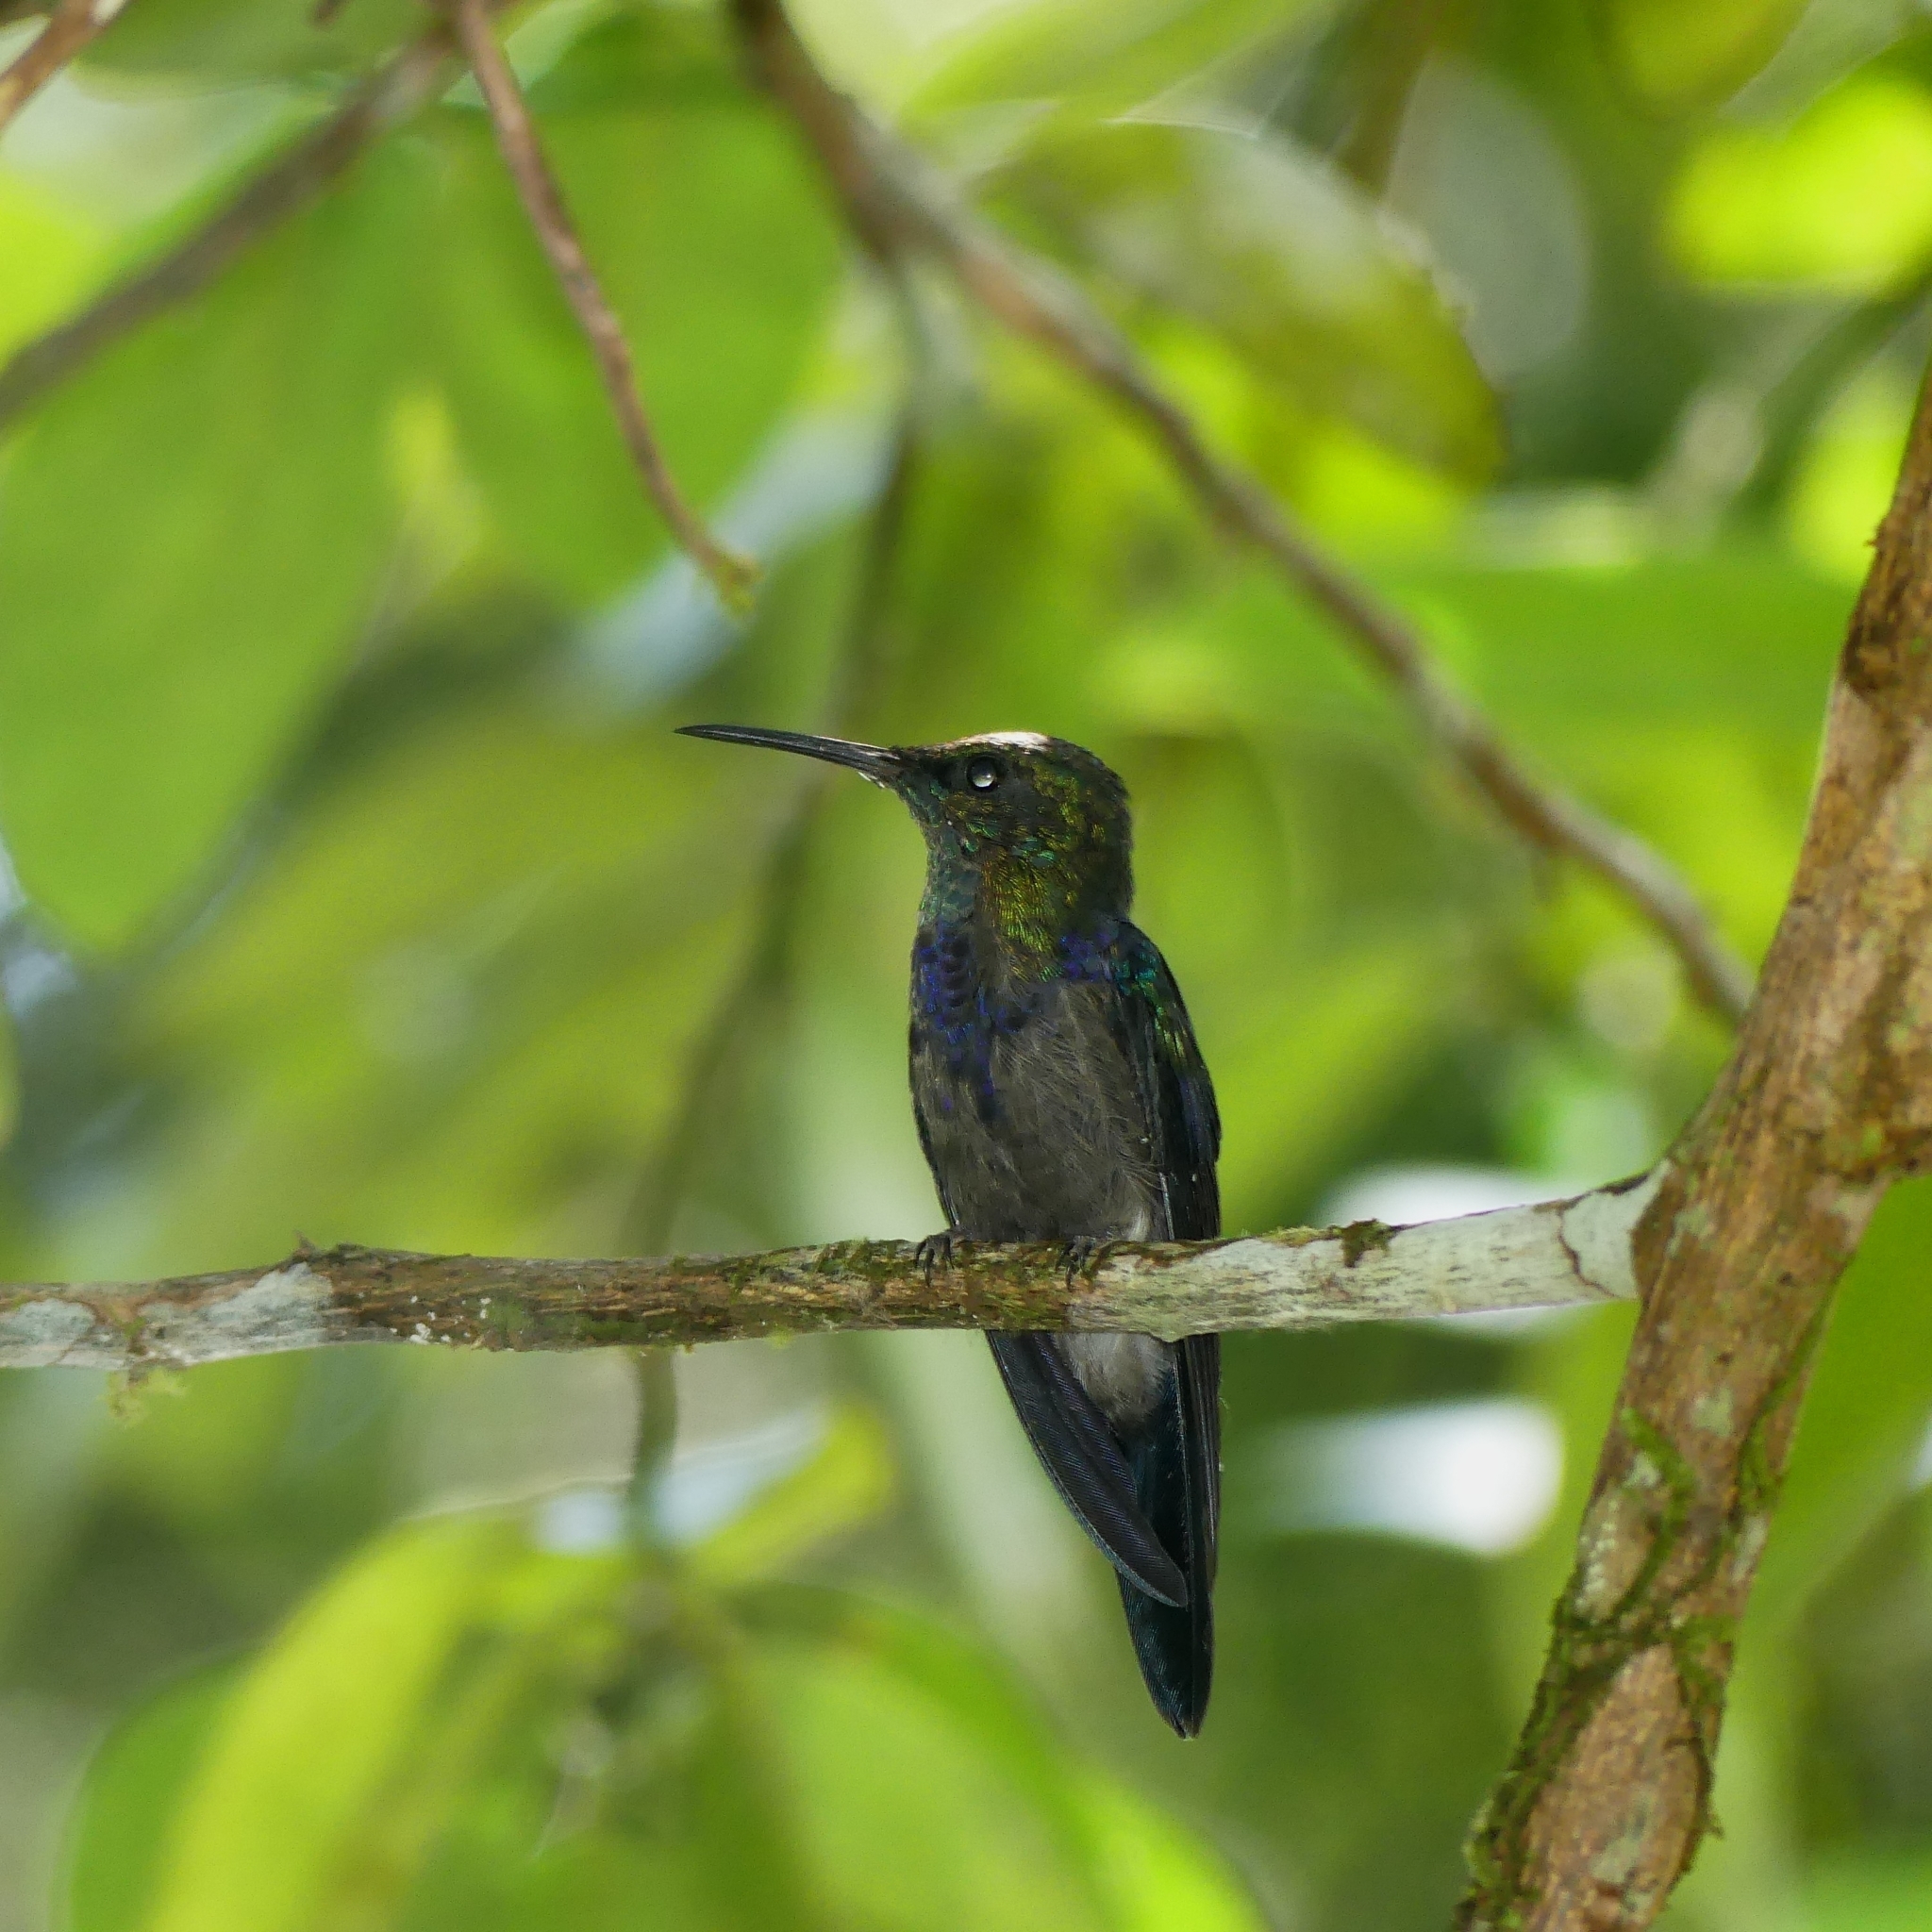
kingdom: Animalia
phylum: Chordata
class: Aves
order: Apodiformes
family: Trochilidae
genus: Thalurania
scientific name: Thalurania furcata
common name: Fork-tailed woodnymph
